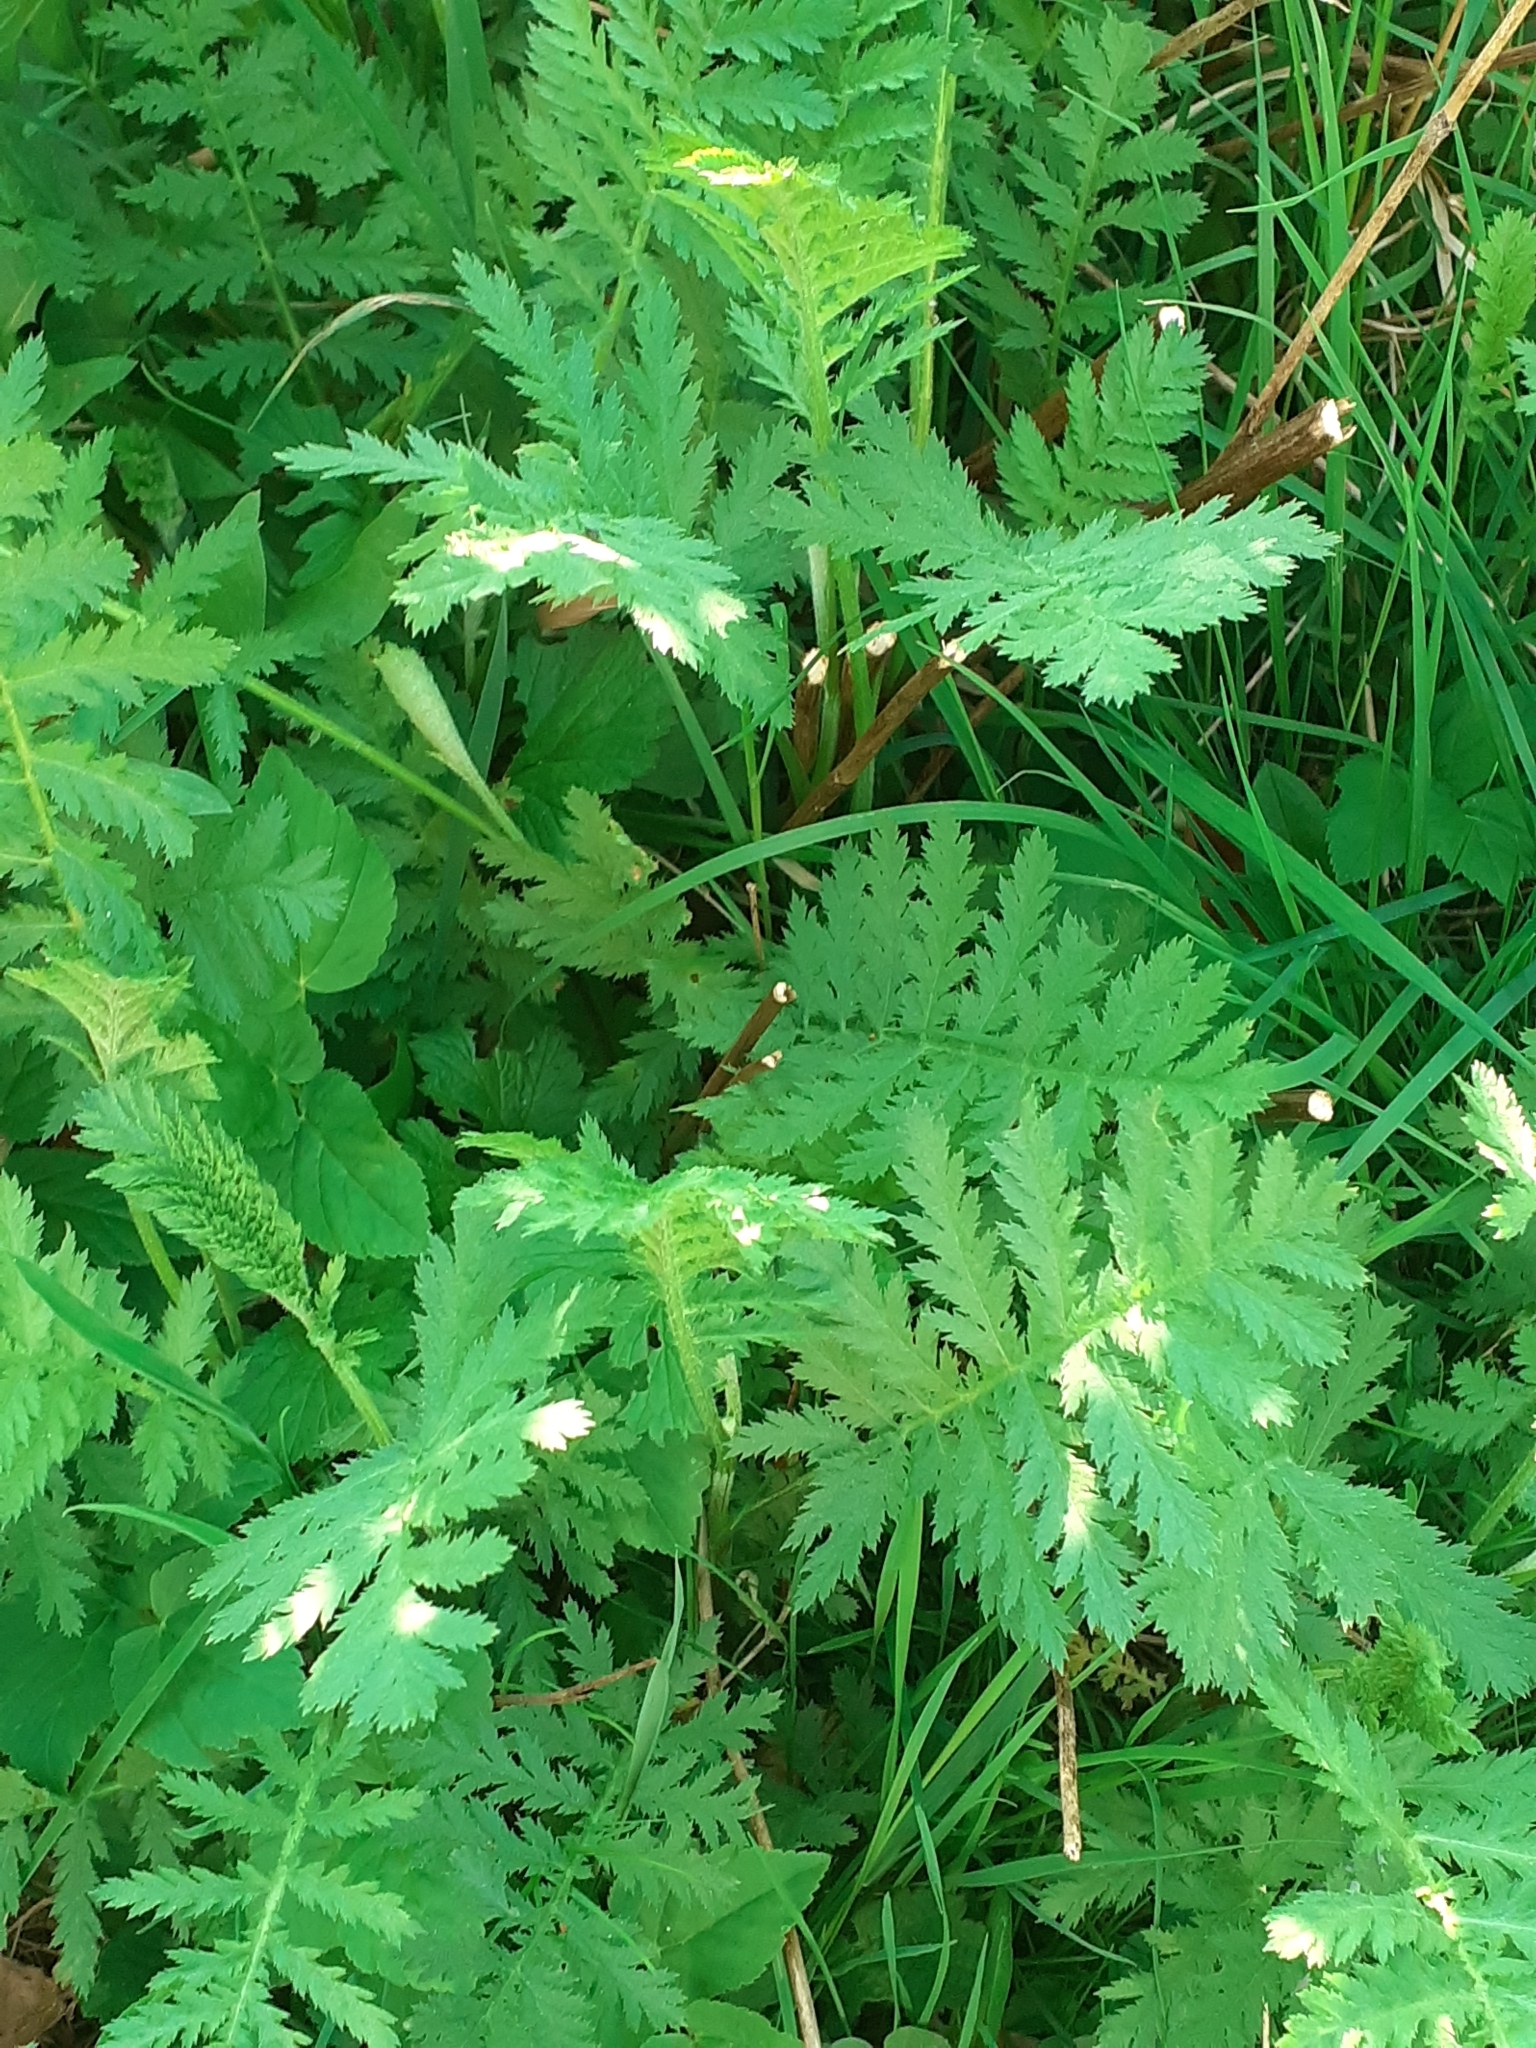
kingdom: Plantae
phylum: Tracheophyta
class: Magnoliopsida
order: Asterales
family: Asteraceae
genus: Tanacetum
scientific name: Tanacetum vulgare
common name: Common tansy
